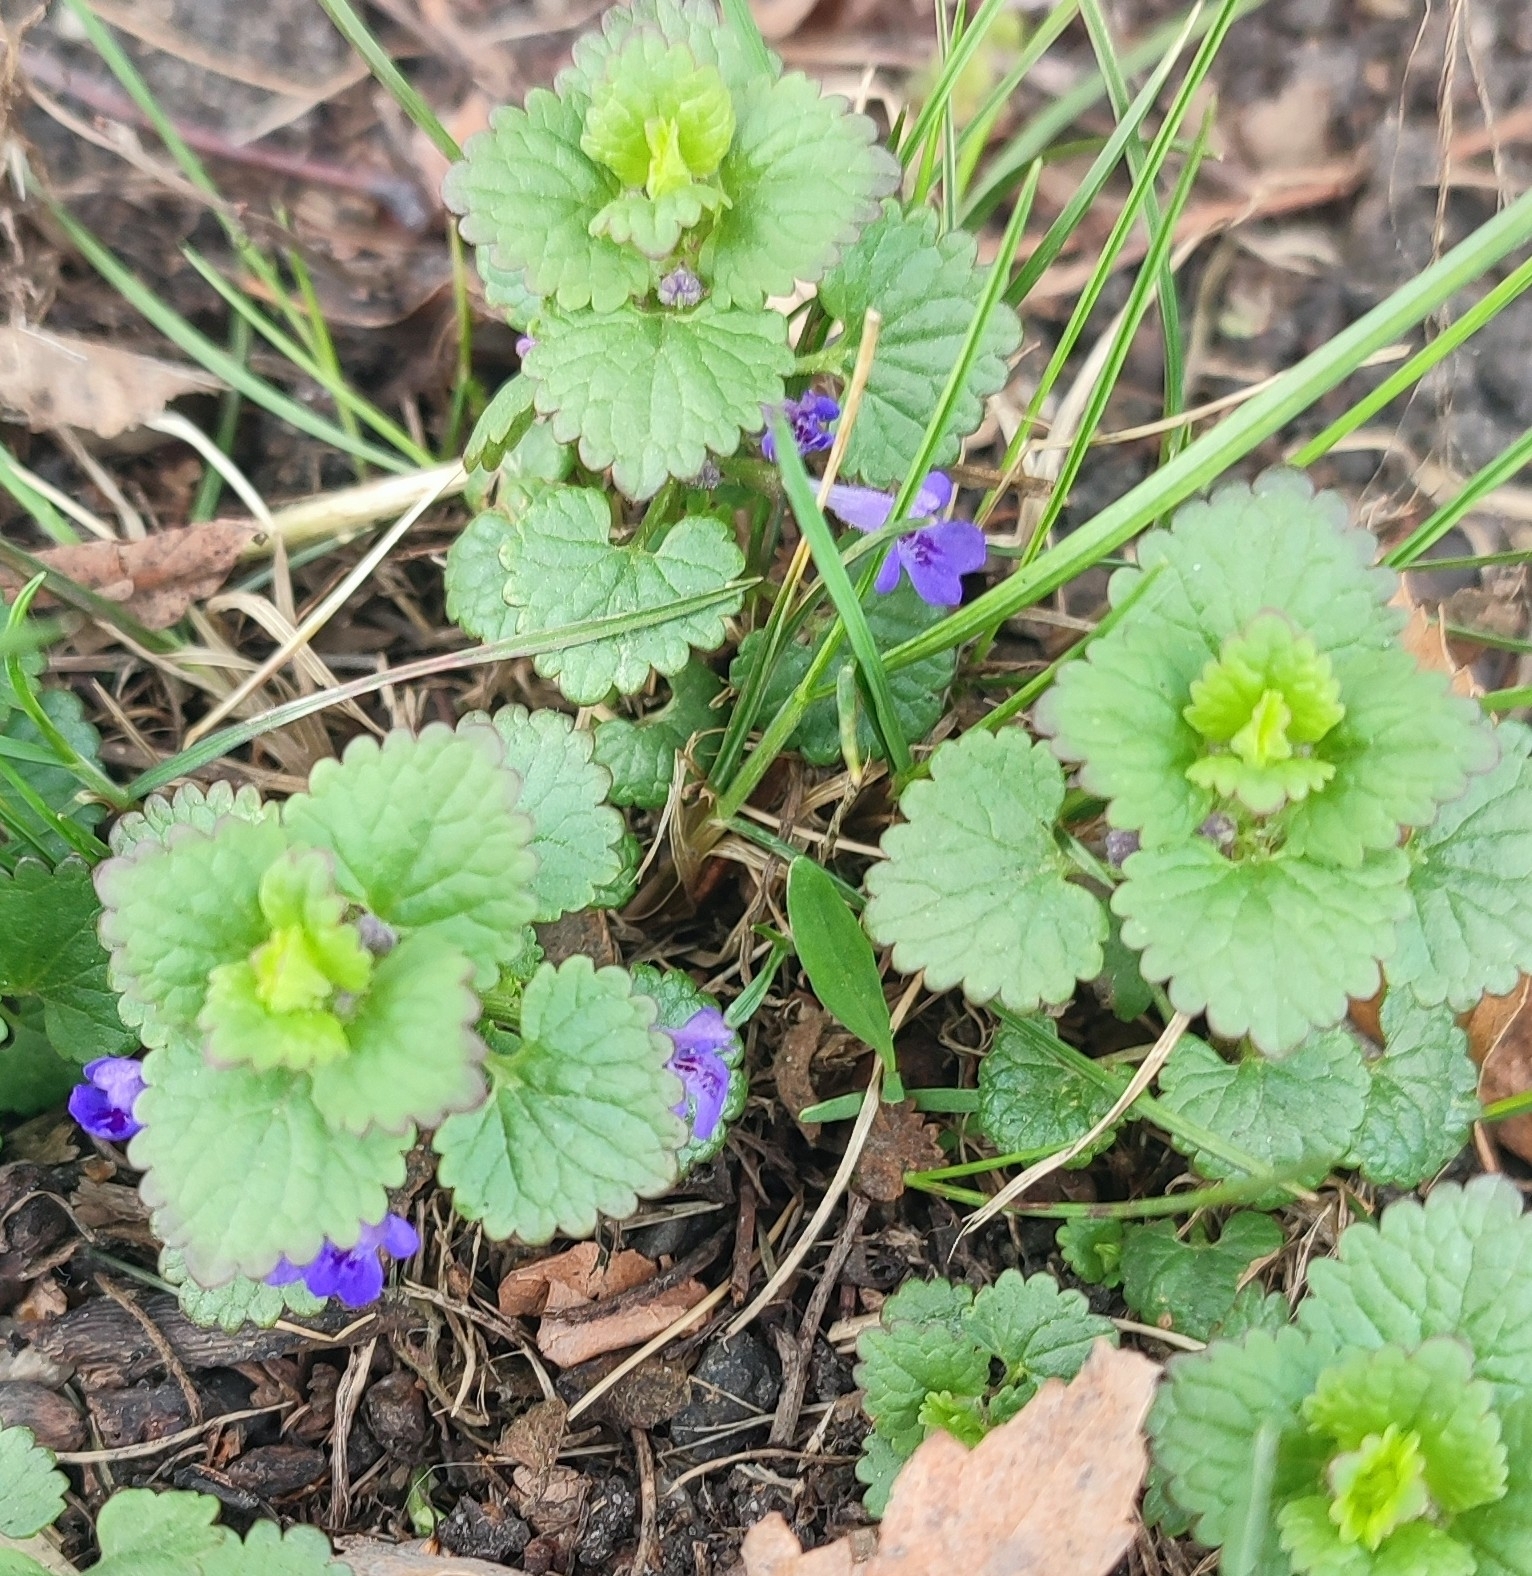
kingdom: Plantae
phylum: Tracheophyta
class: Magnoliopsida
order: Lamiales
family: Lamiaceae
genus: Glechoma
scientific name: Glechoma hederacea
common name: Ground ivy
